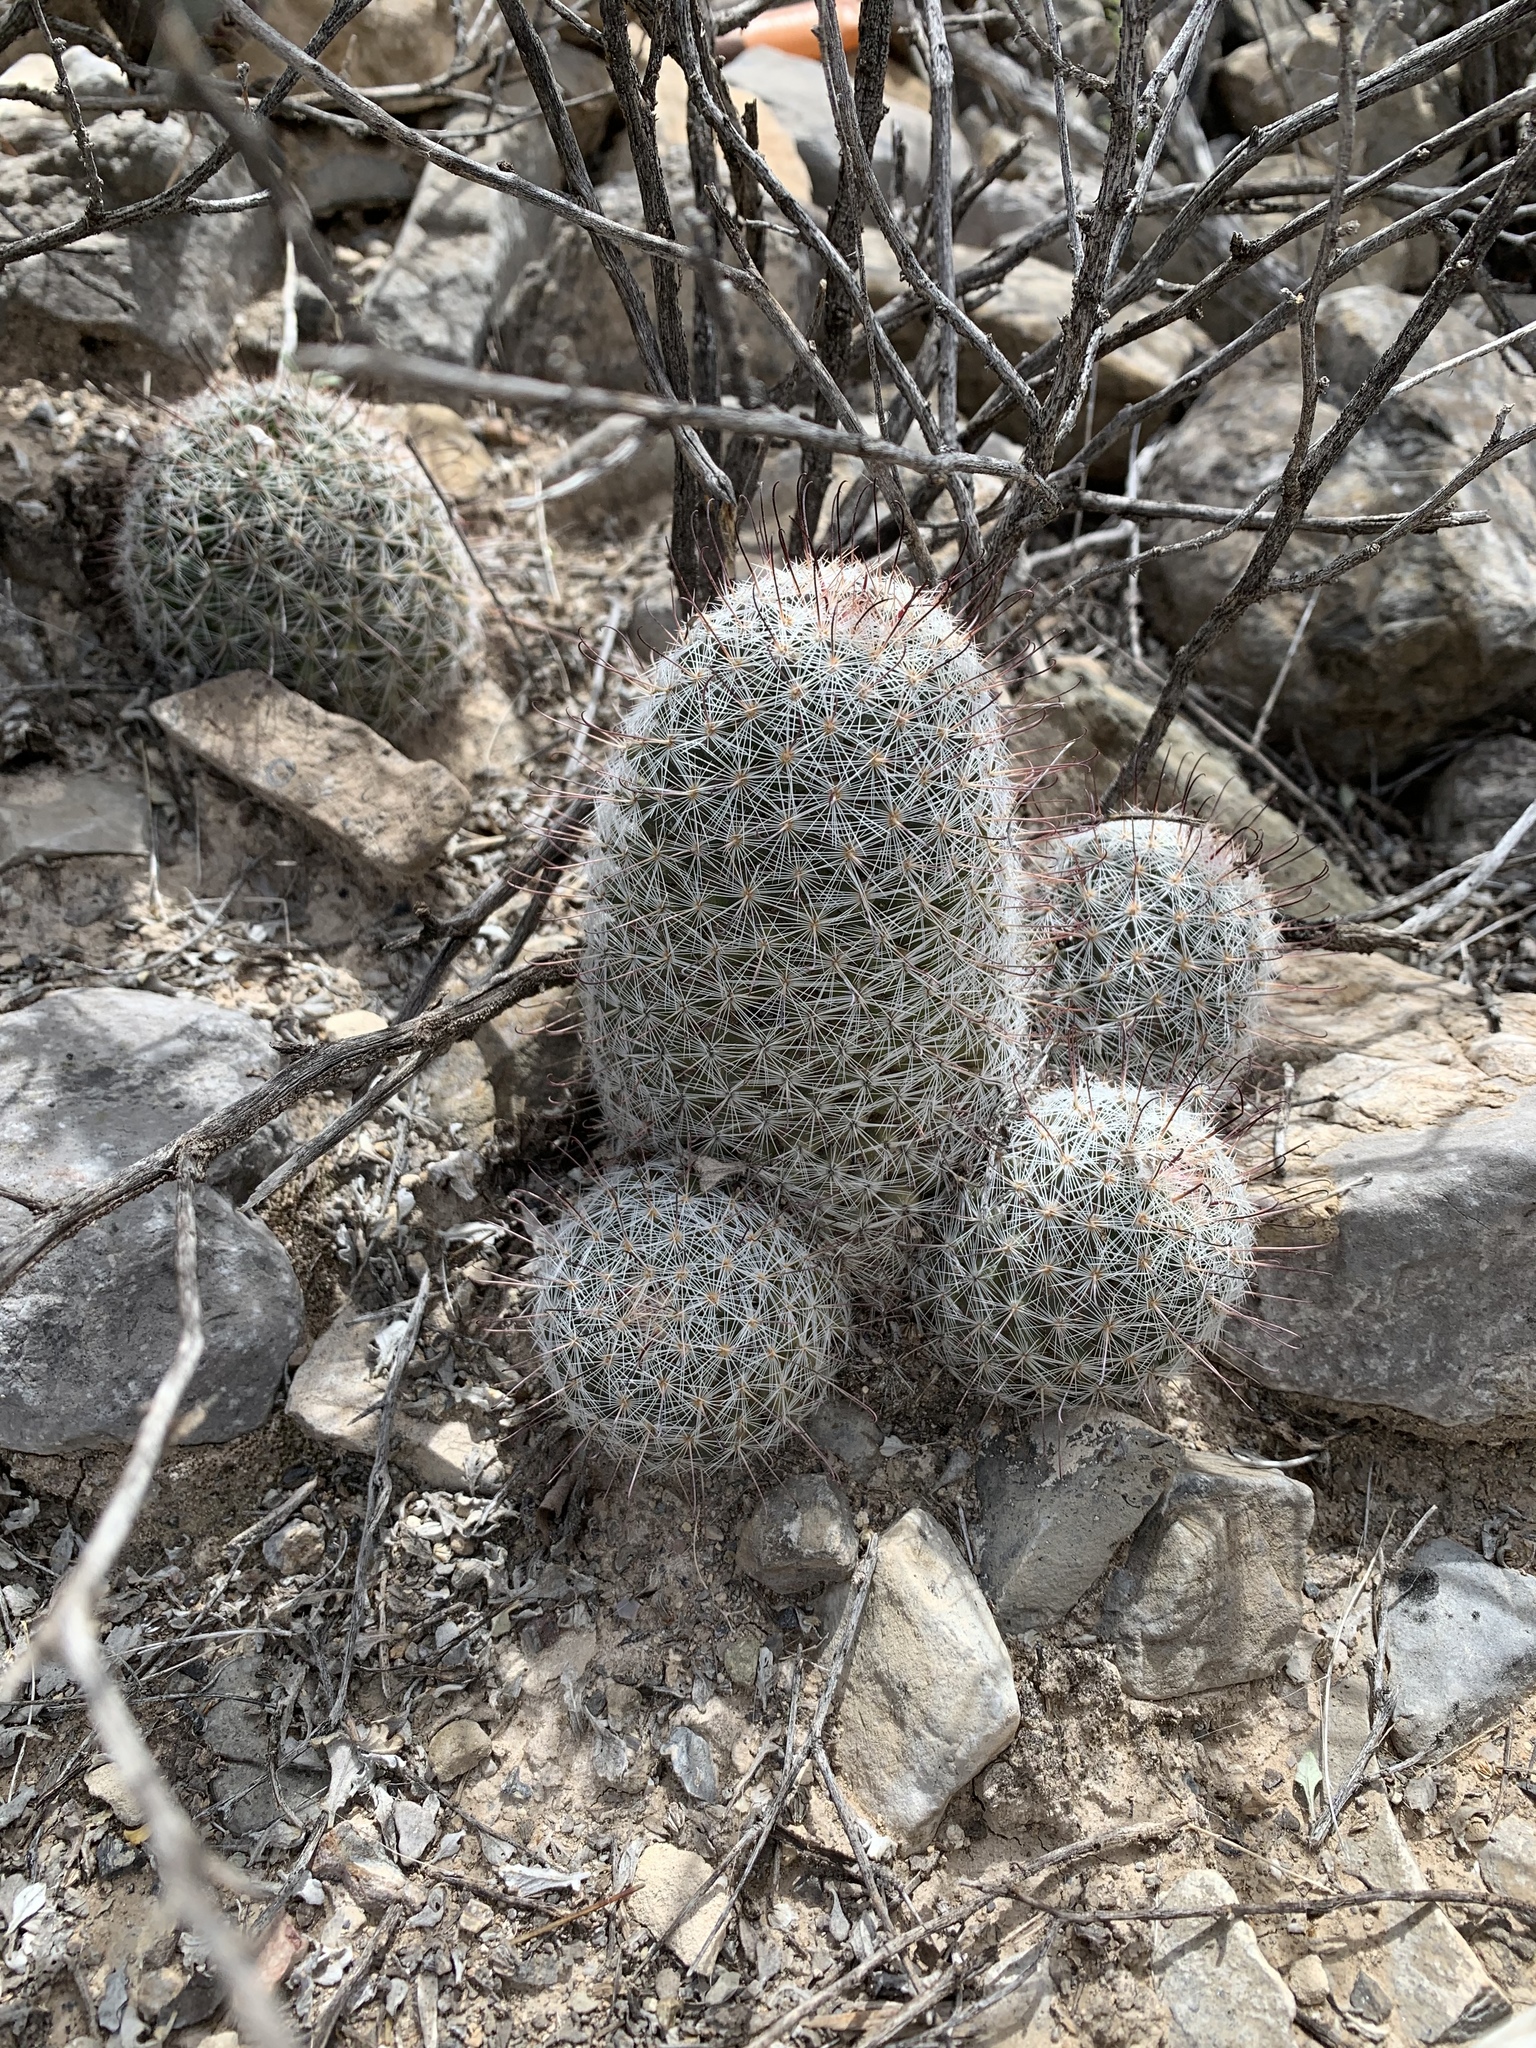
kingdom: Plantae
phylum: Tracheophyta
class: Magnoliopsida
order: Caryophyllales
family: Cactaceae
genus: Cochemiea
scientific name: Cochemiea grahamii
